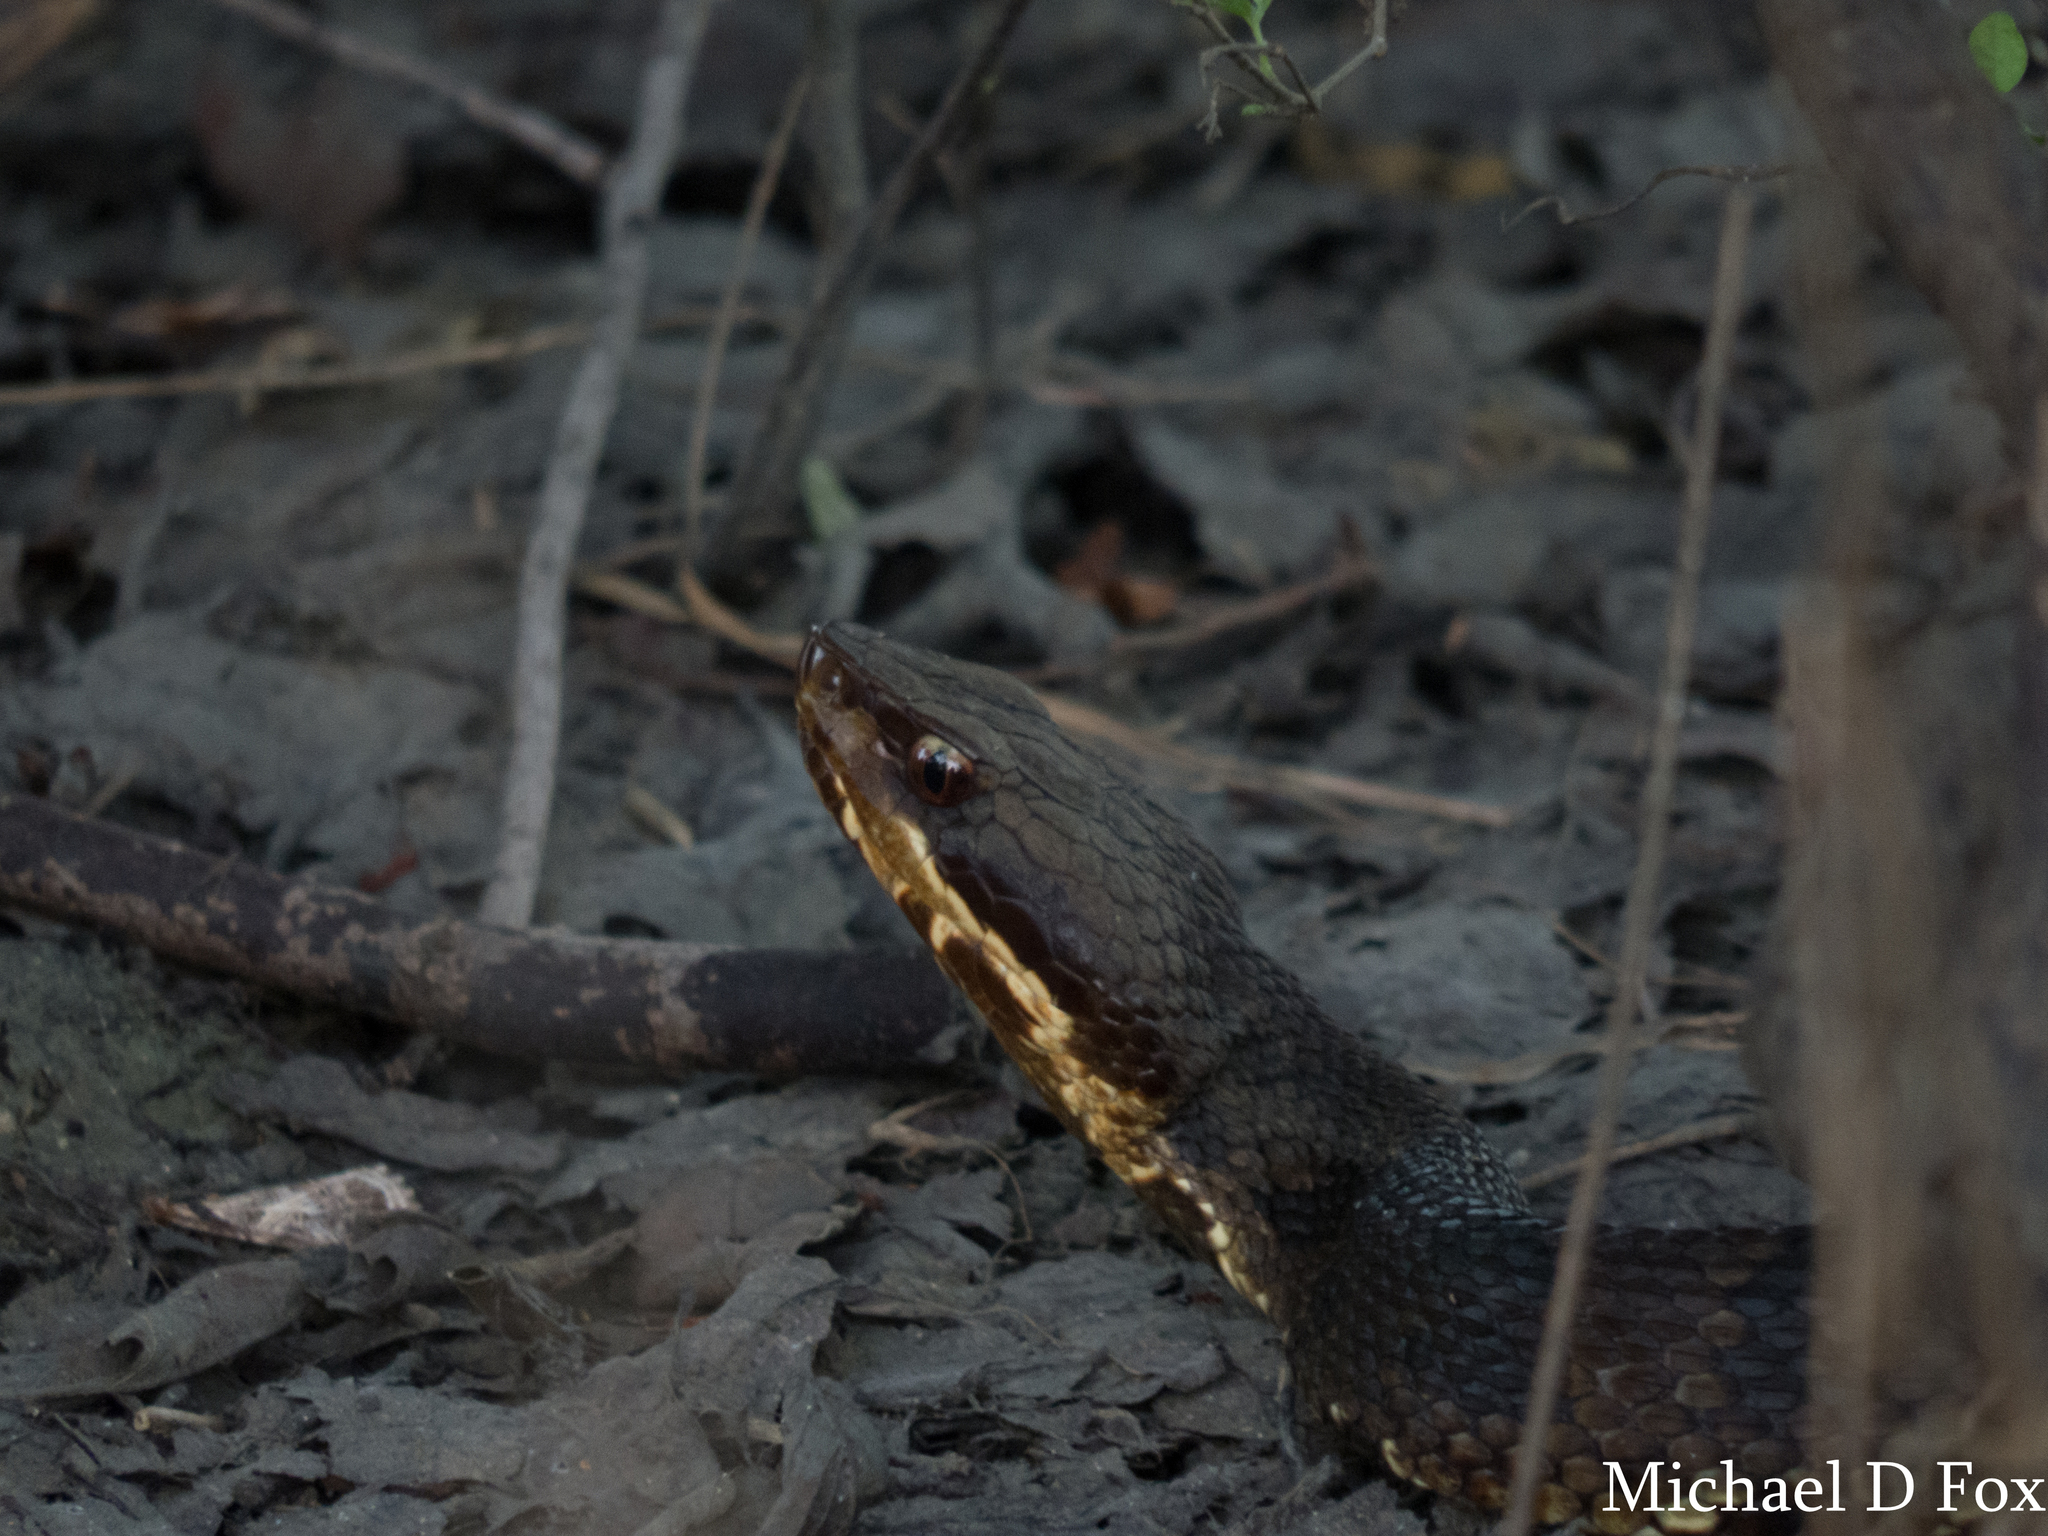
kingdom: Animalia
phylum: Chordata
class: Squamata
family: Viperidae
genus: Agkistrodon
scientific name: Agkistrodon piscivorus
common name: Cottonmouth
